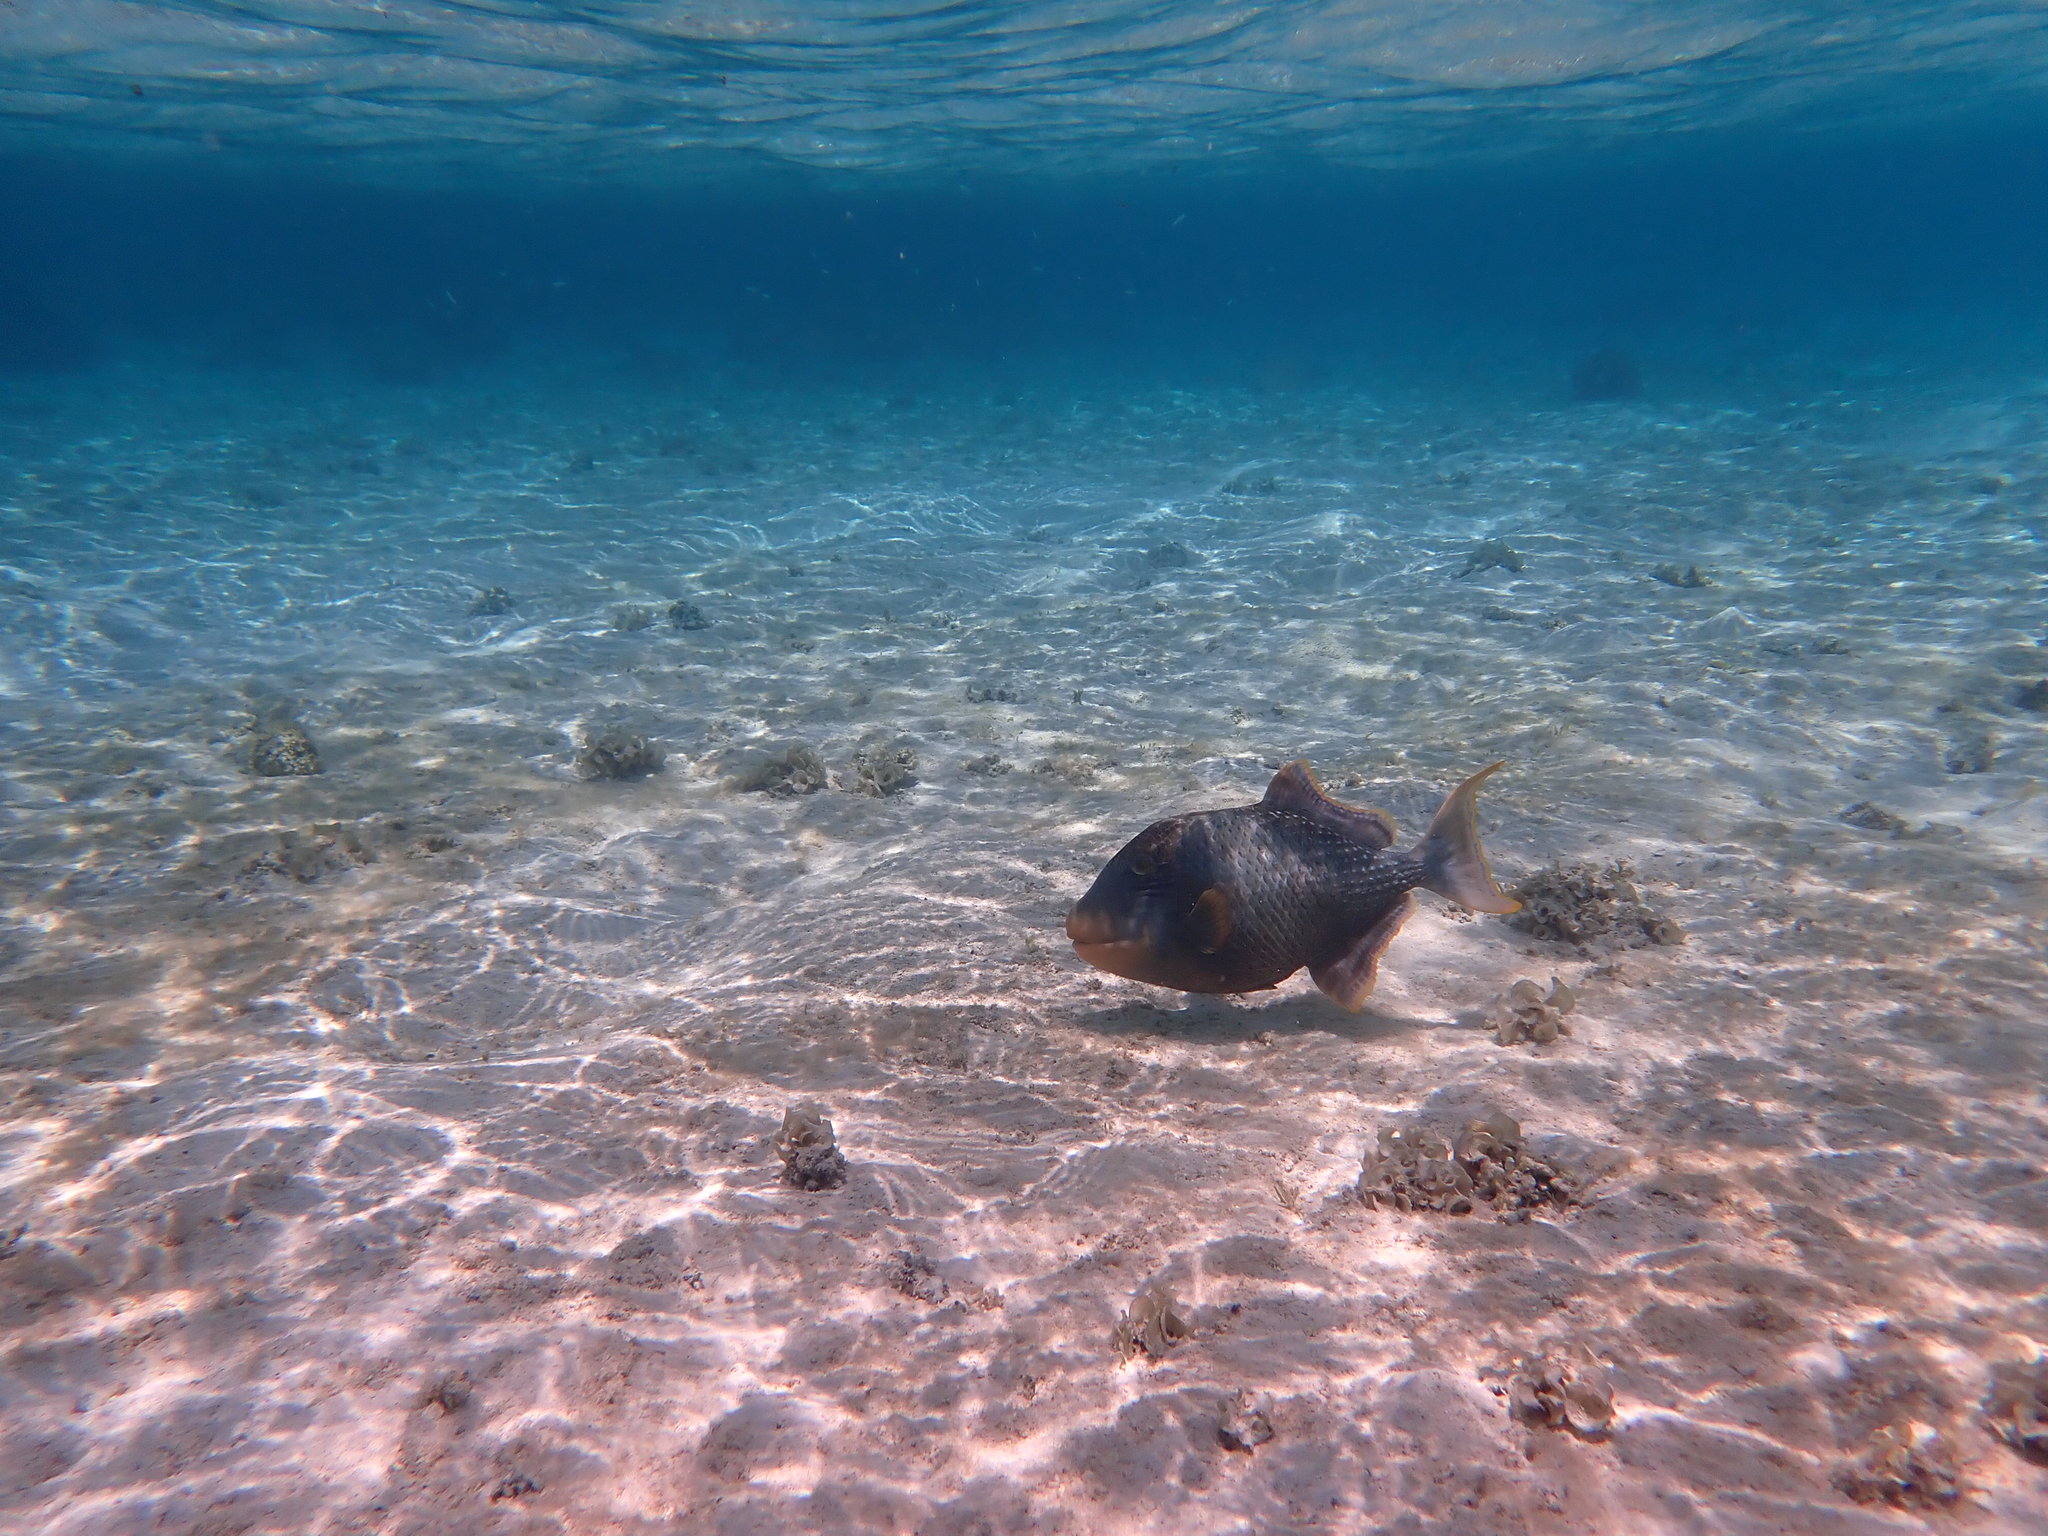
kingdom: Animalia
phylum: Chordata
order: Tetraodontiformes
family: Balistidae
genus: Pseudobalistes
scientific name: Pseudobalistes flavimarginatus
